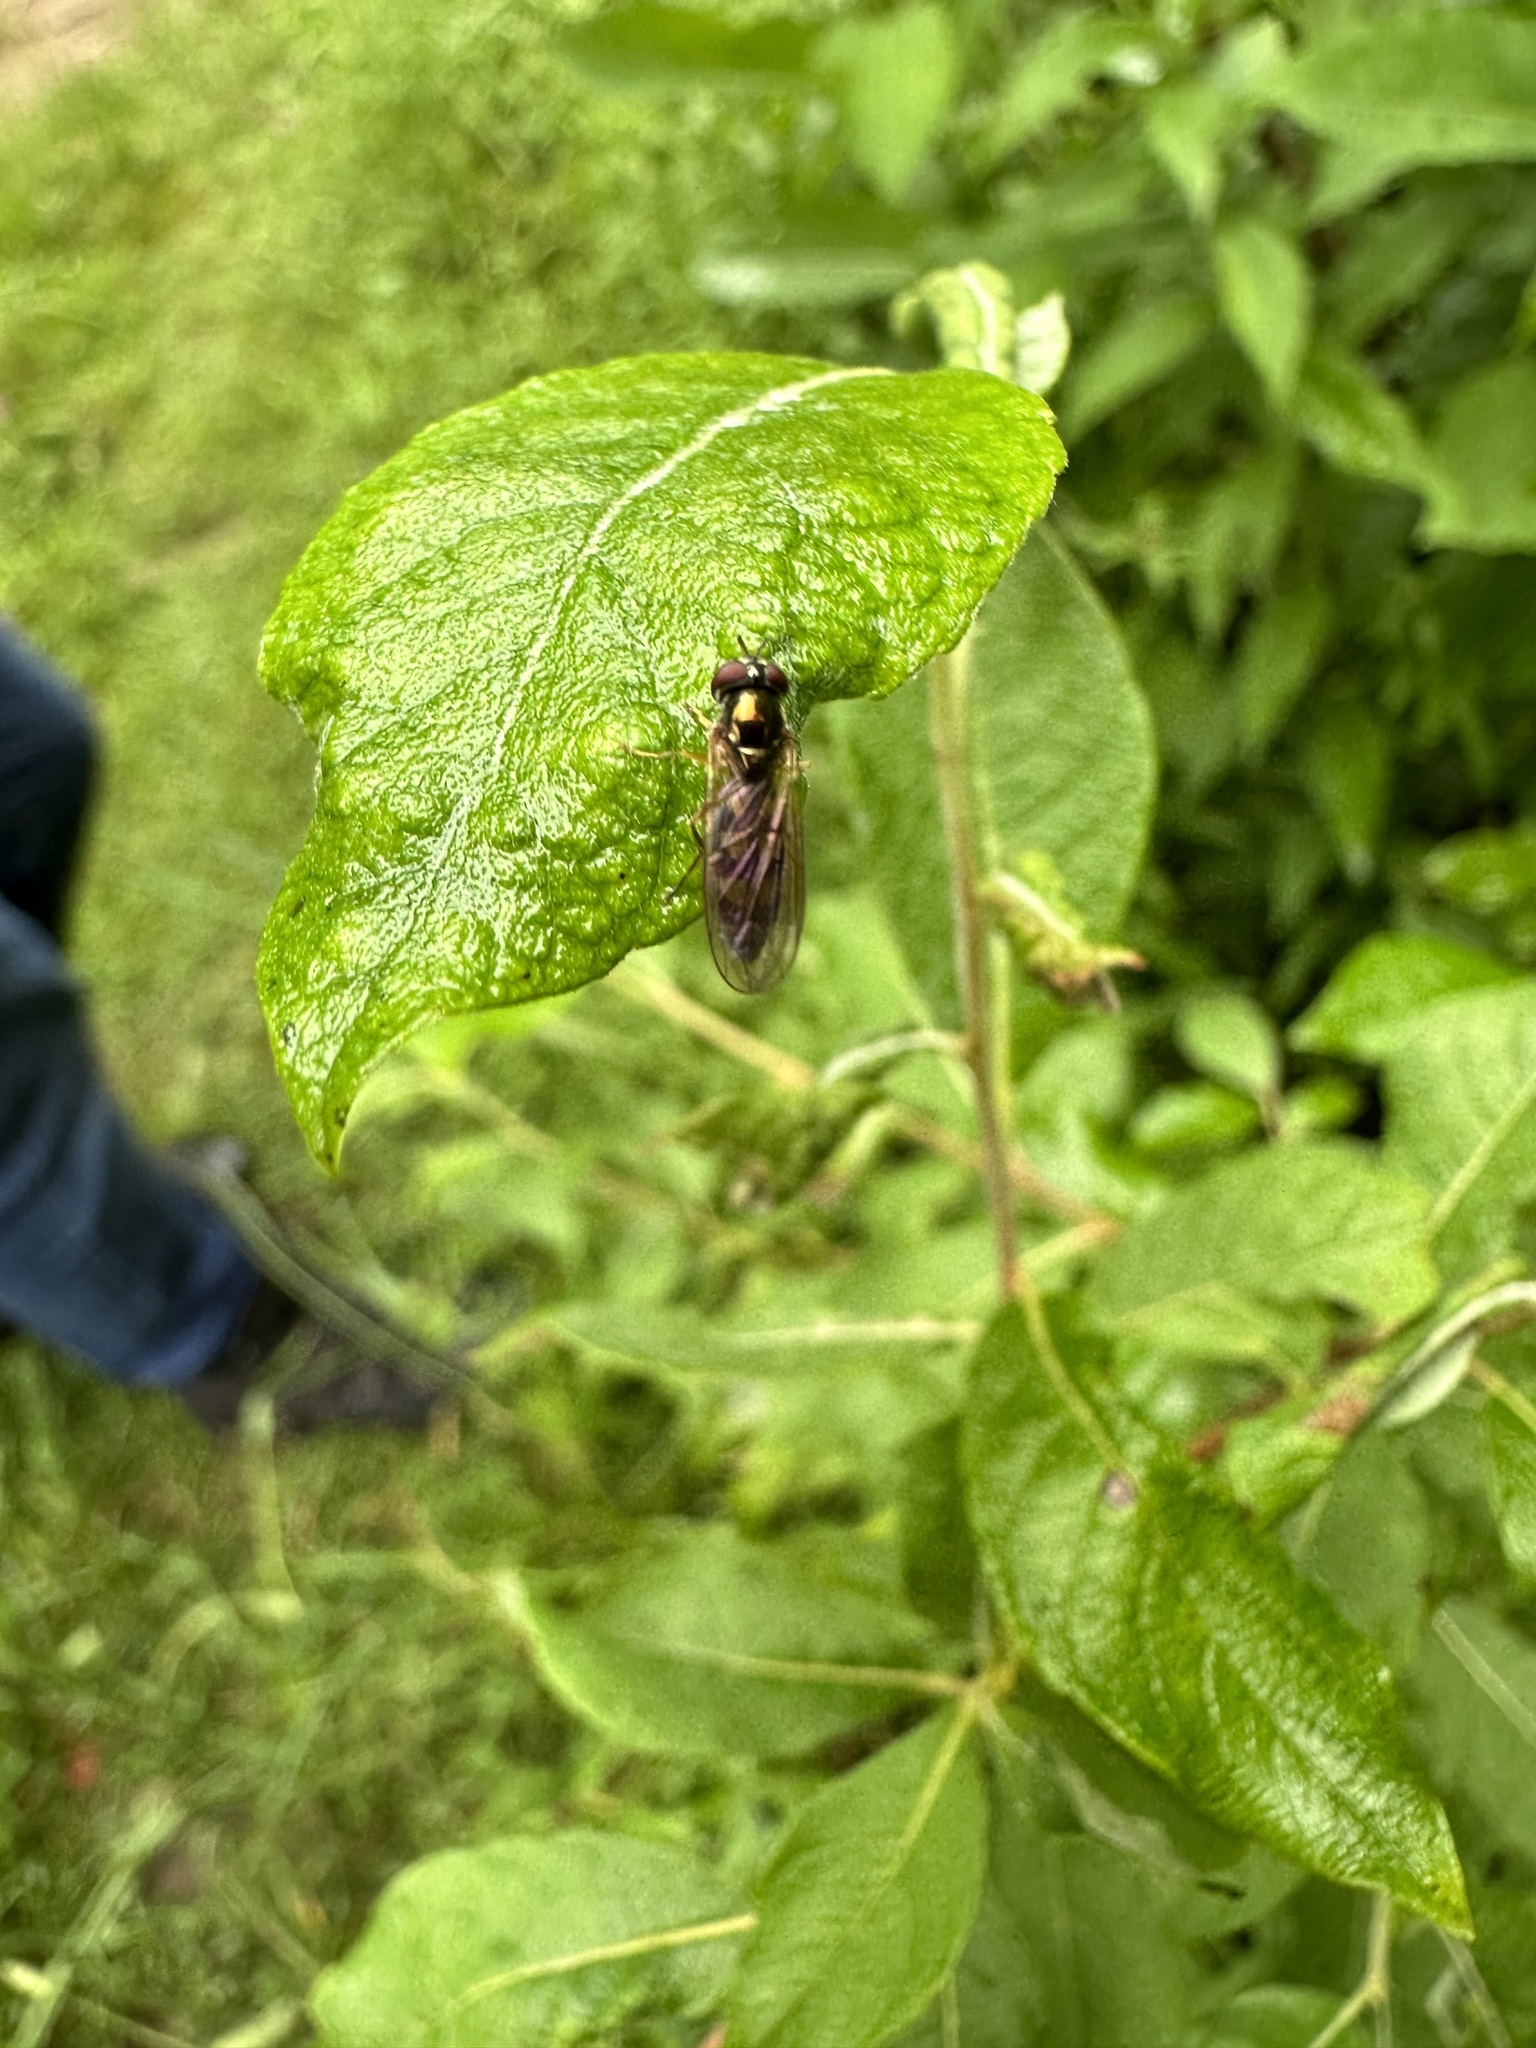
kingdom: Animalia
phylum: Arthropoda
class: Insecta
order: Diptera
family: Syrphidae
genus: Melanostoma
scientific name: Melanostoma mellina
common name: Hover fly
